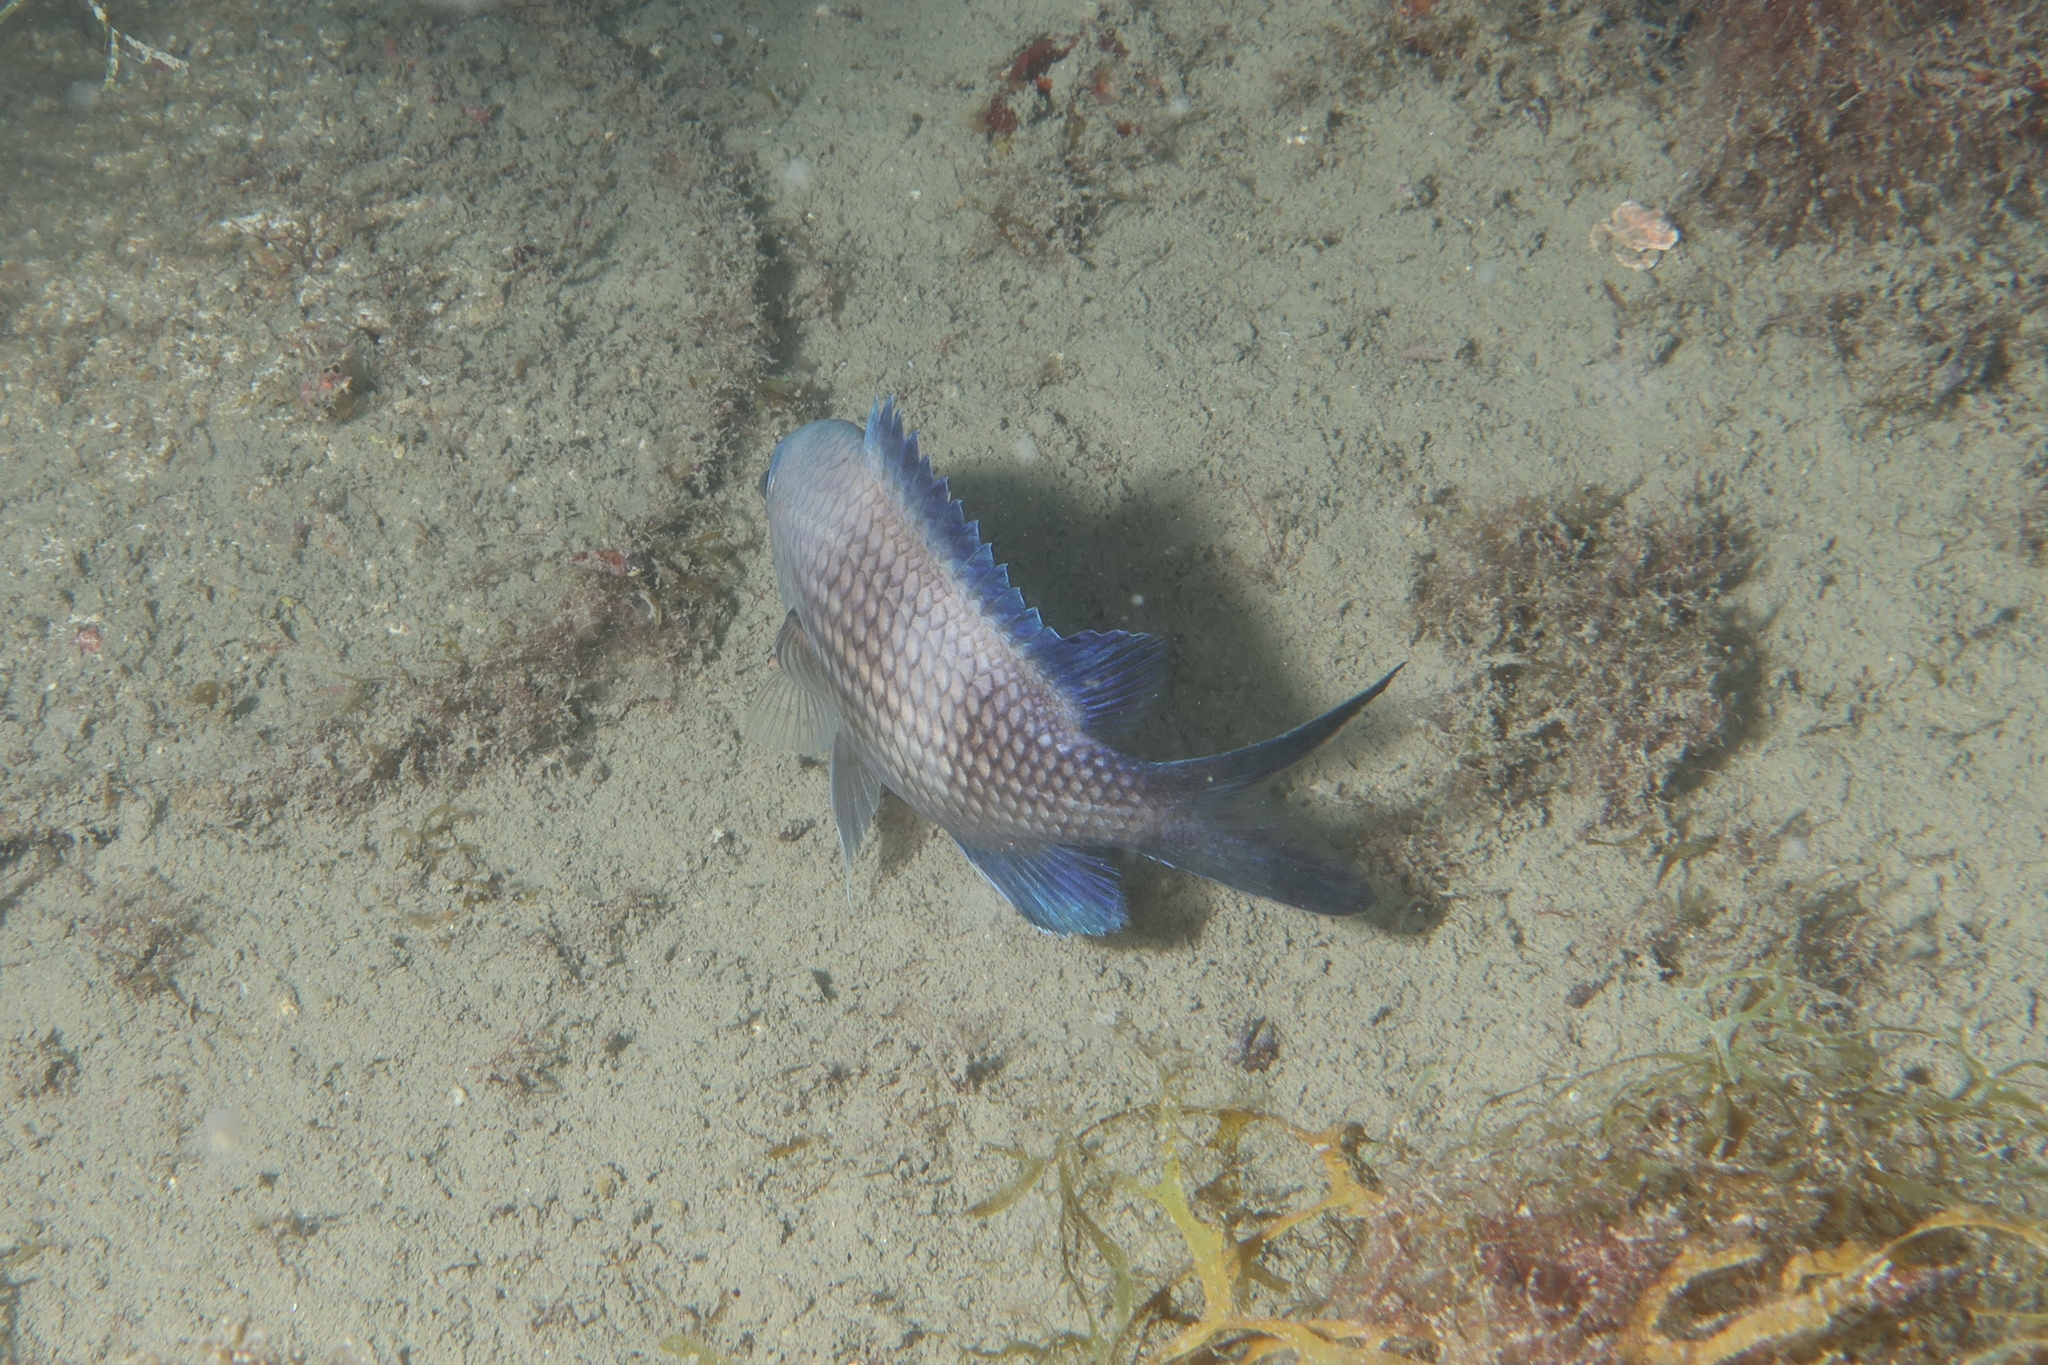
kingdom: Animalia
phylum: Chordata
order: Perciformes
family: Pomacentridae
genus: Chromis
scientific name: Chromis chromis
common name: Damselfish
